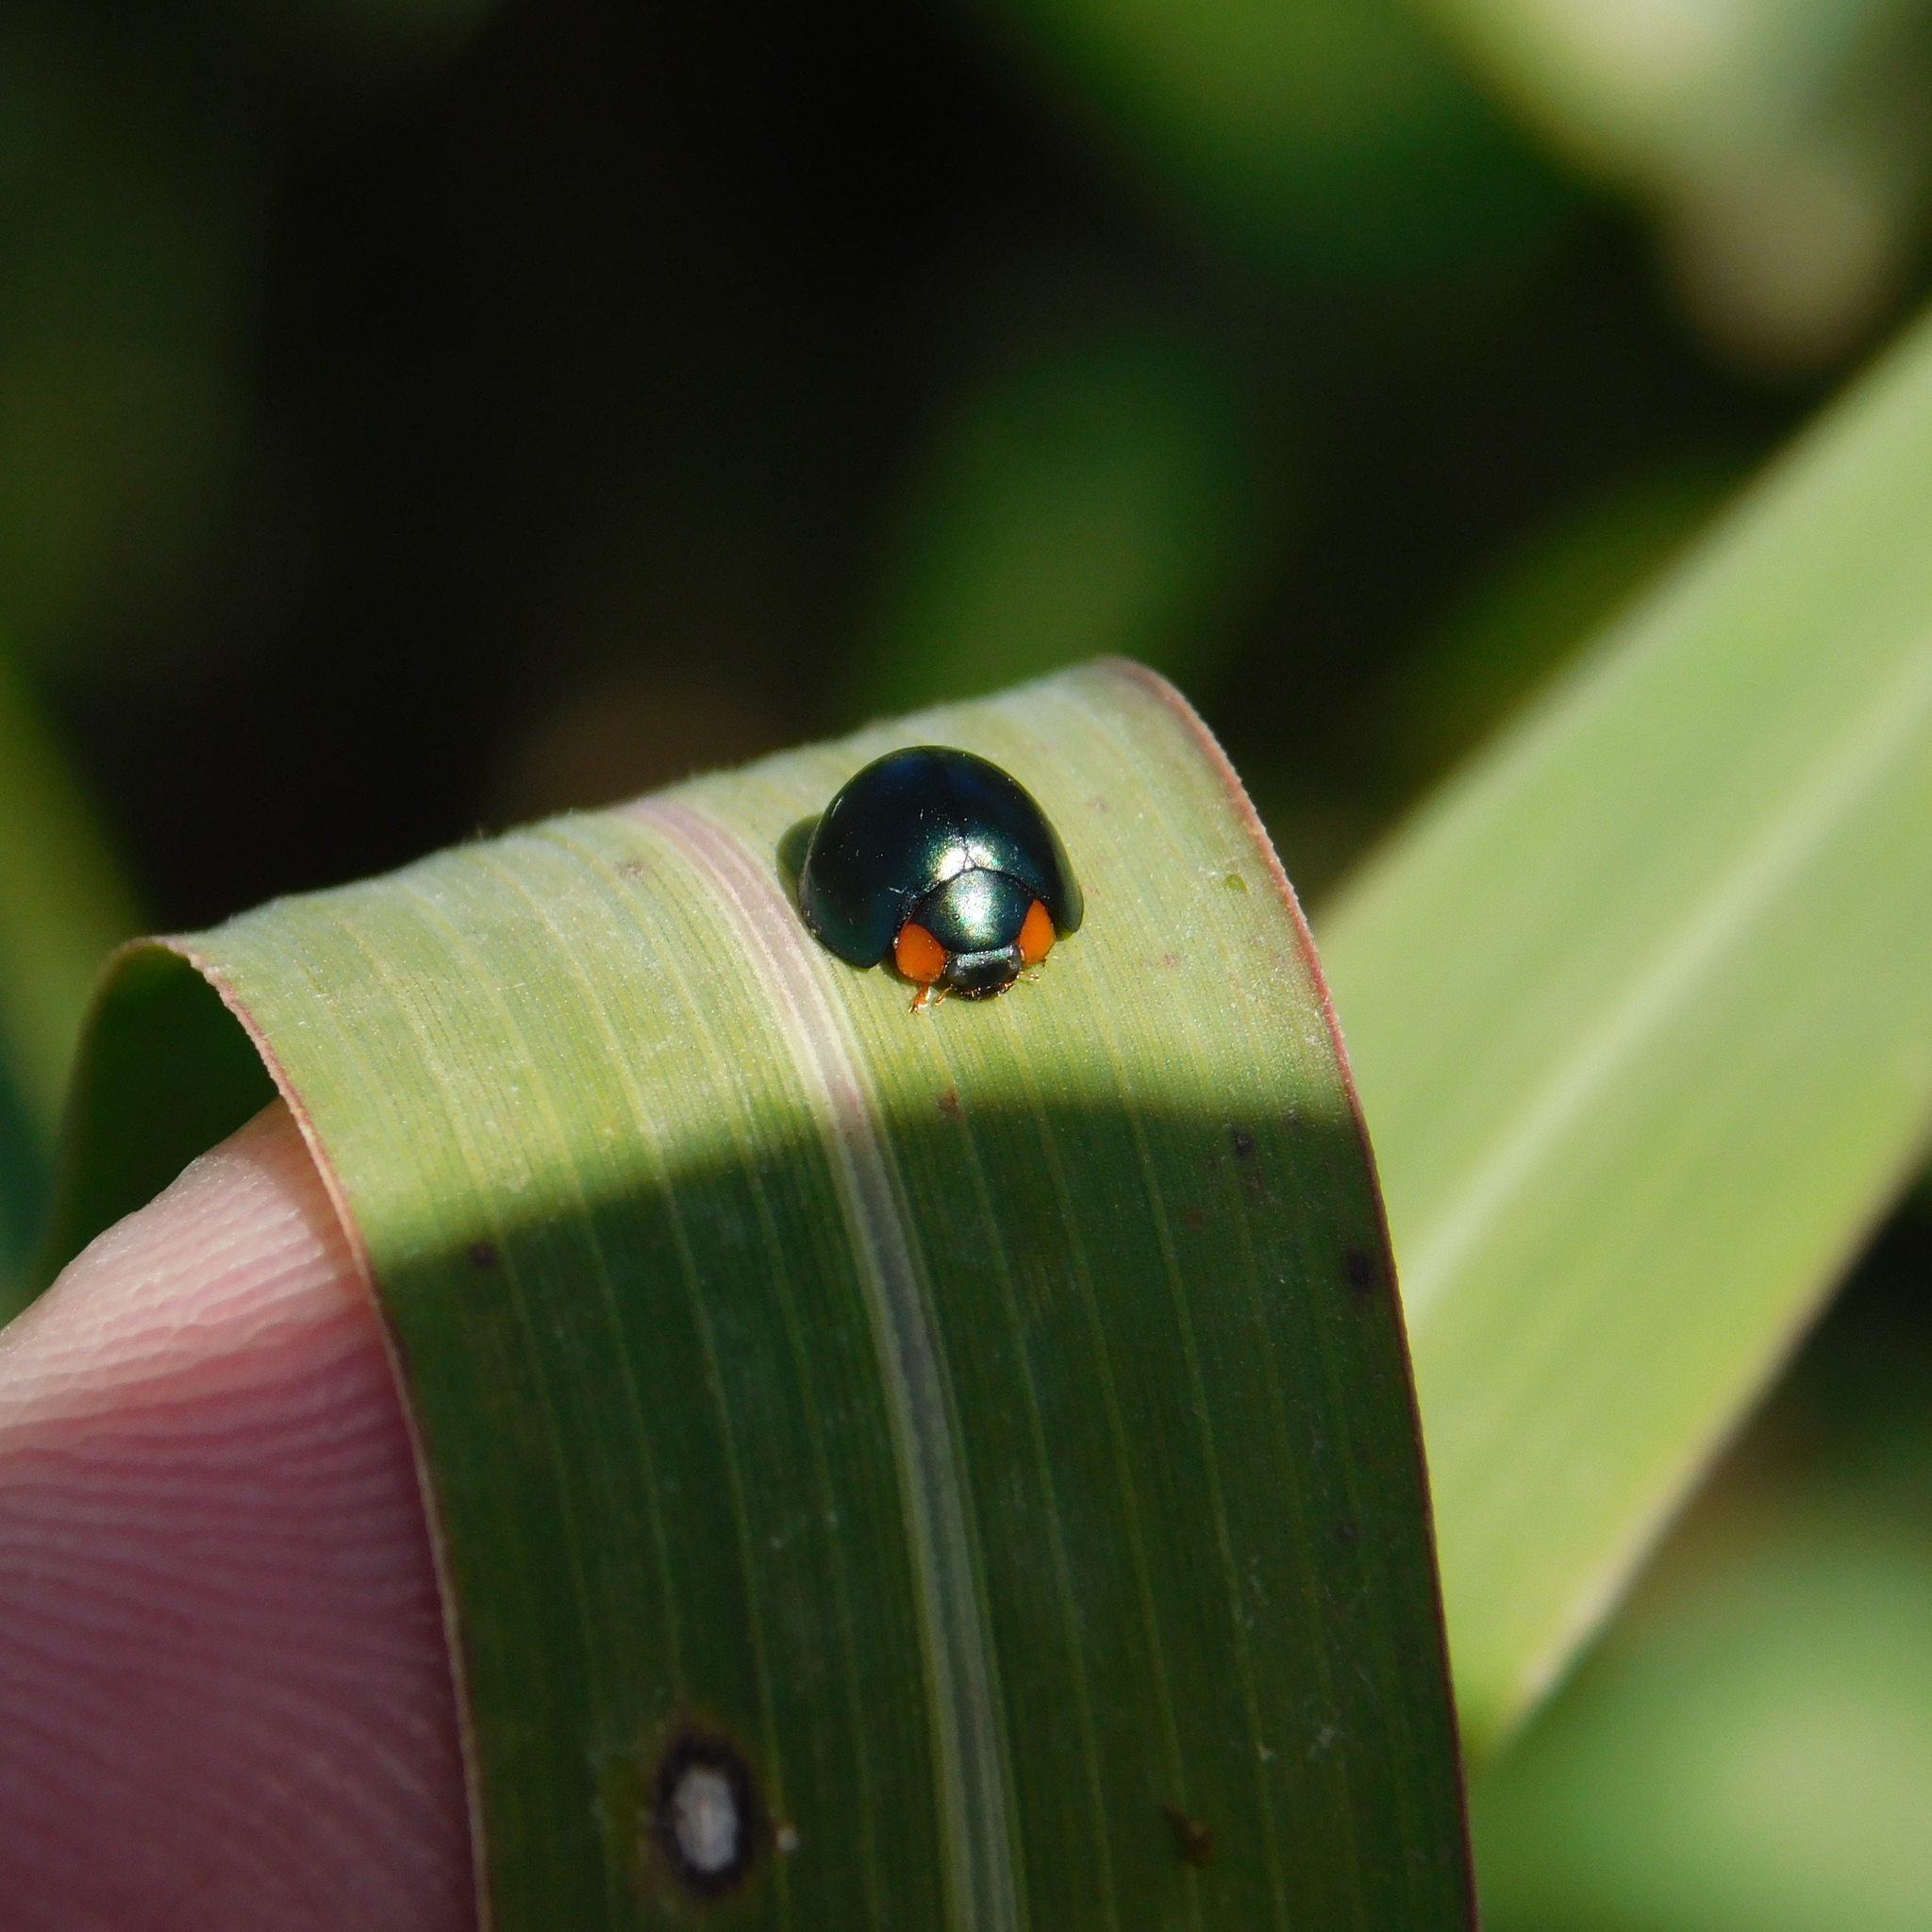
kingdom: Animalia
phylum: Arthropoda
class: Insecta
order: Coleoptera
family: Coccinellidae
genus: Curinus
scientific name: Curinus coeruleus
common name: Ladybird beetle
